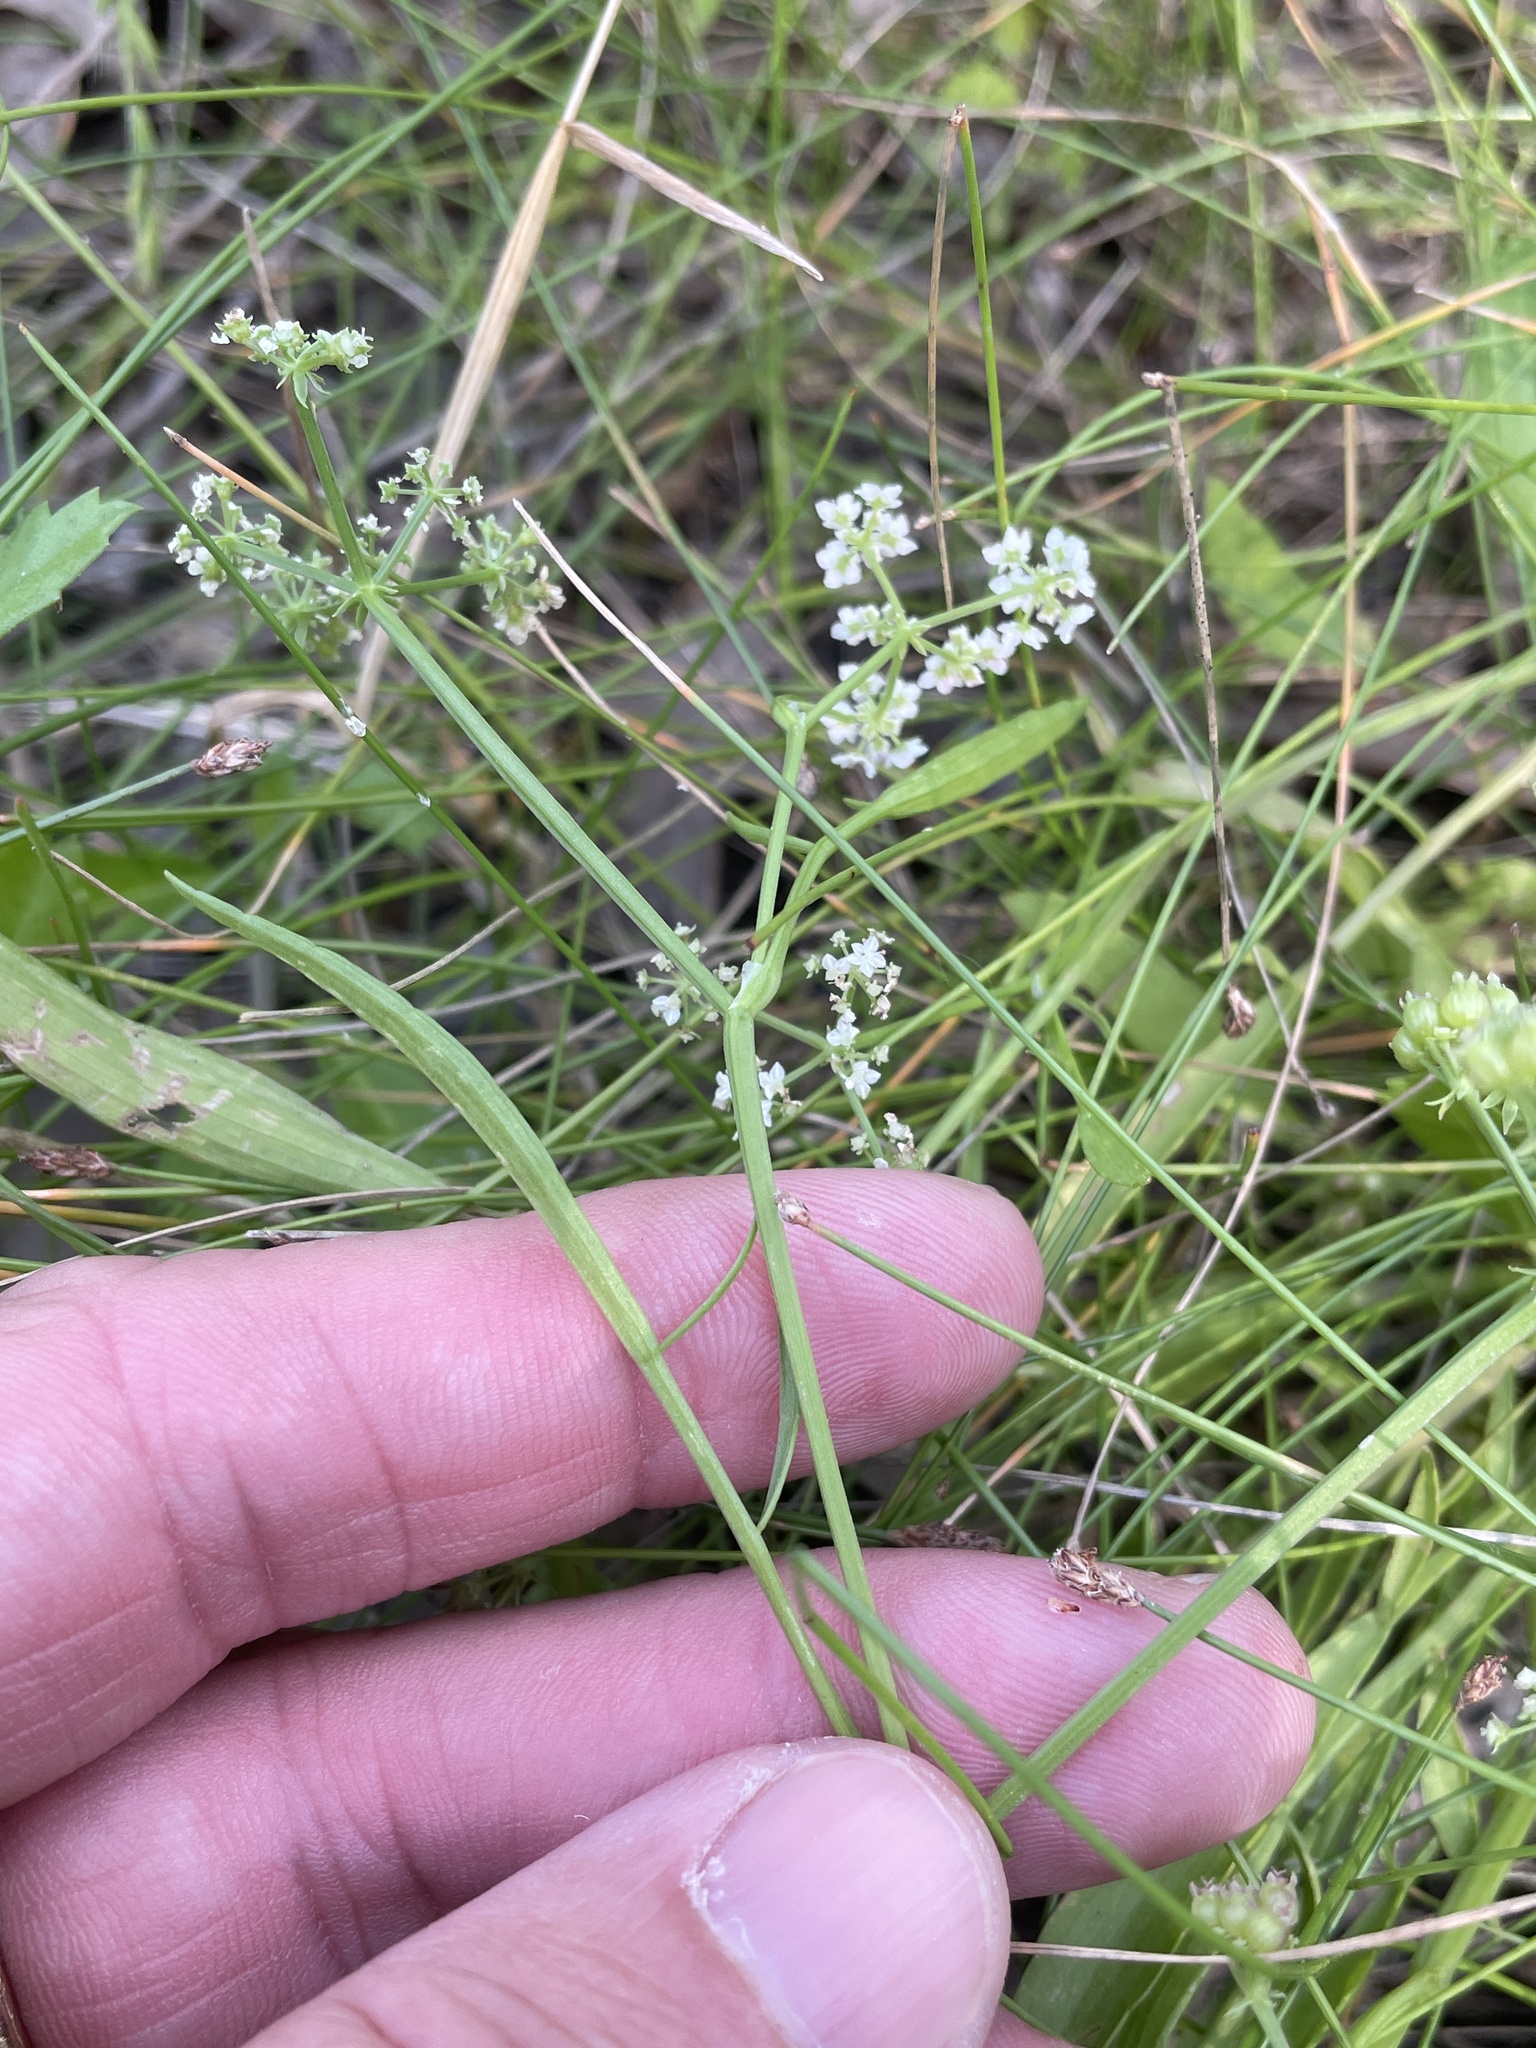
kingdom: Plantae
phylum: Tracheophyta
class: Magnoliopsida
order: Apiales
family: Apiaceae
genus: Limnosciadium
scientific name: Limnosciadium pinnatum
